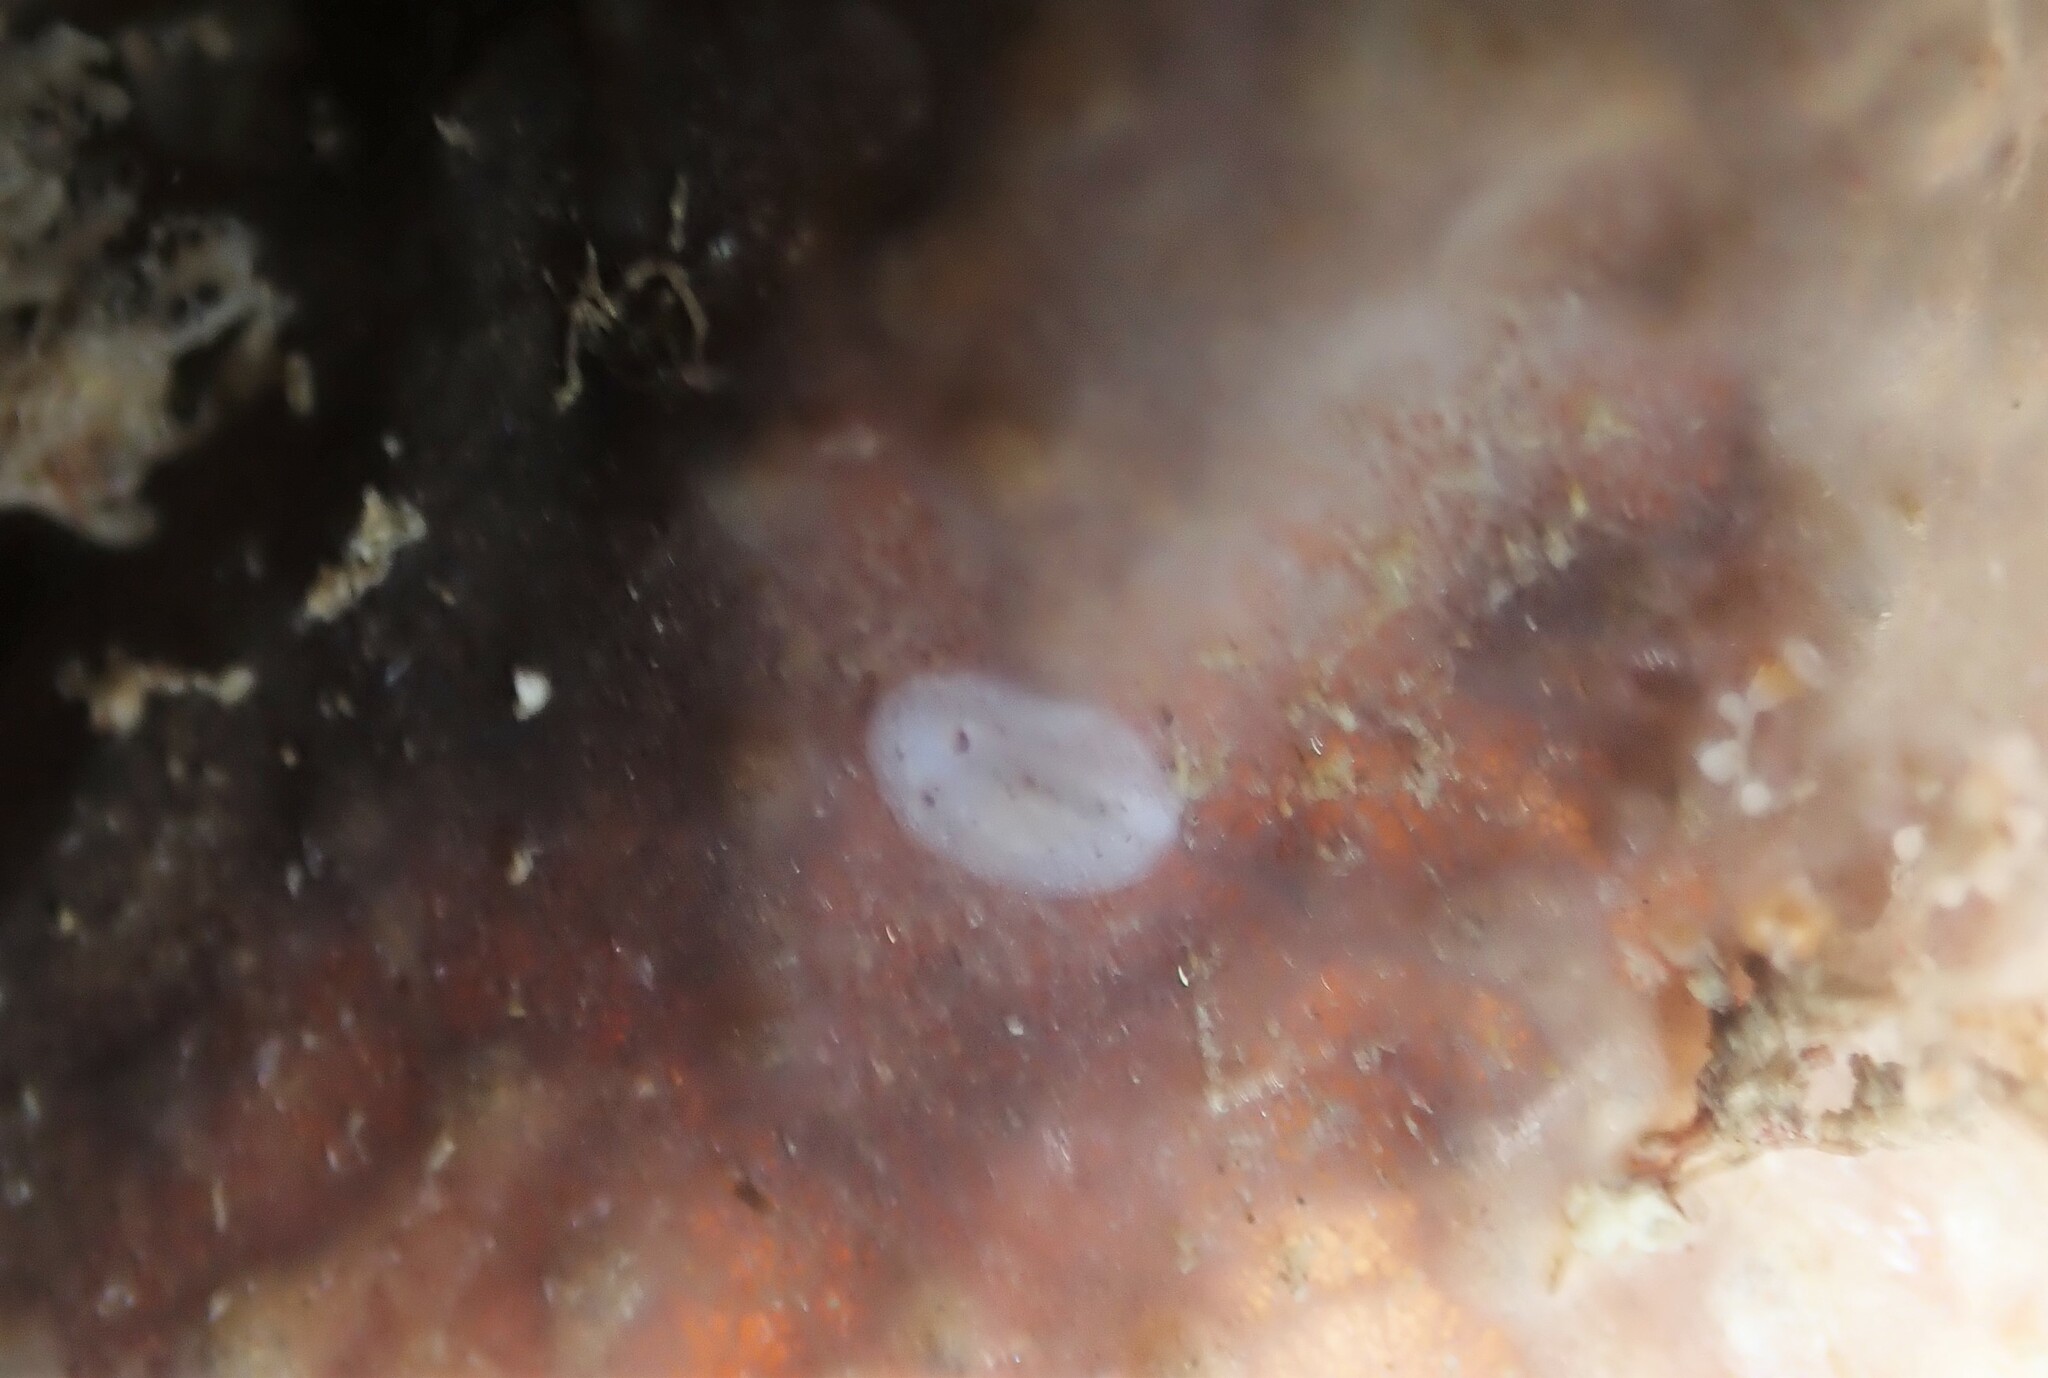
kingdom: Animalia
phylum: Mollusca
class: Gastropoda
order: Nudibranchia
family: Discodorididae
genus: Paradoris
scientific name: Paradoris dubia
